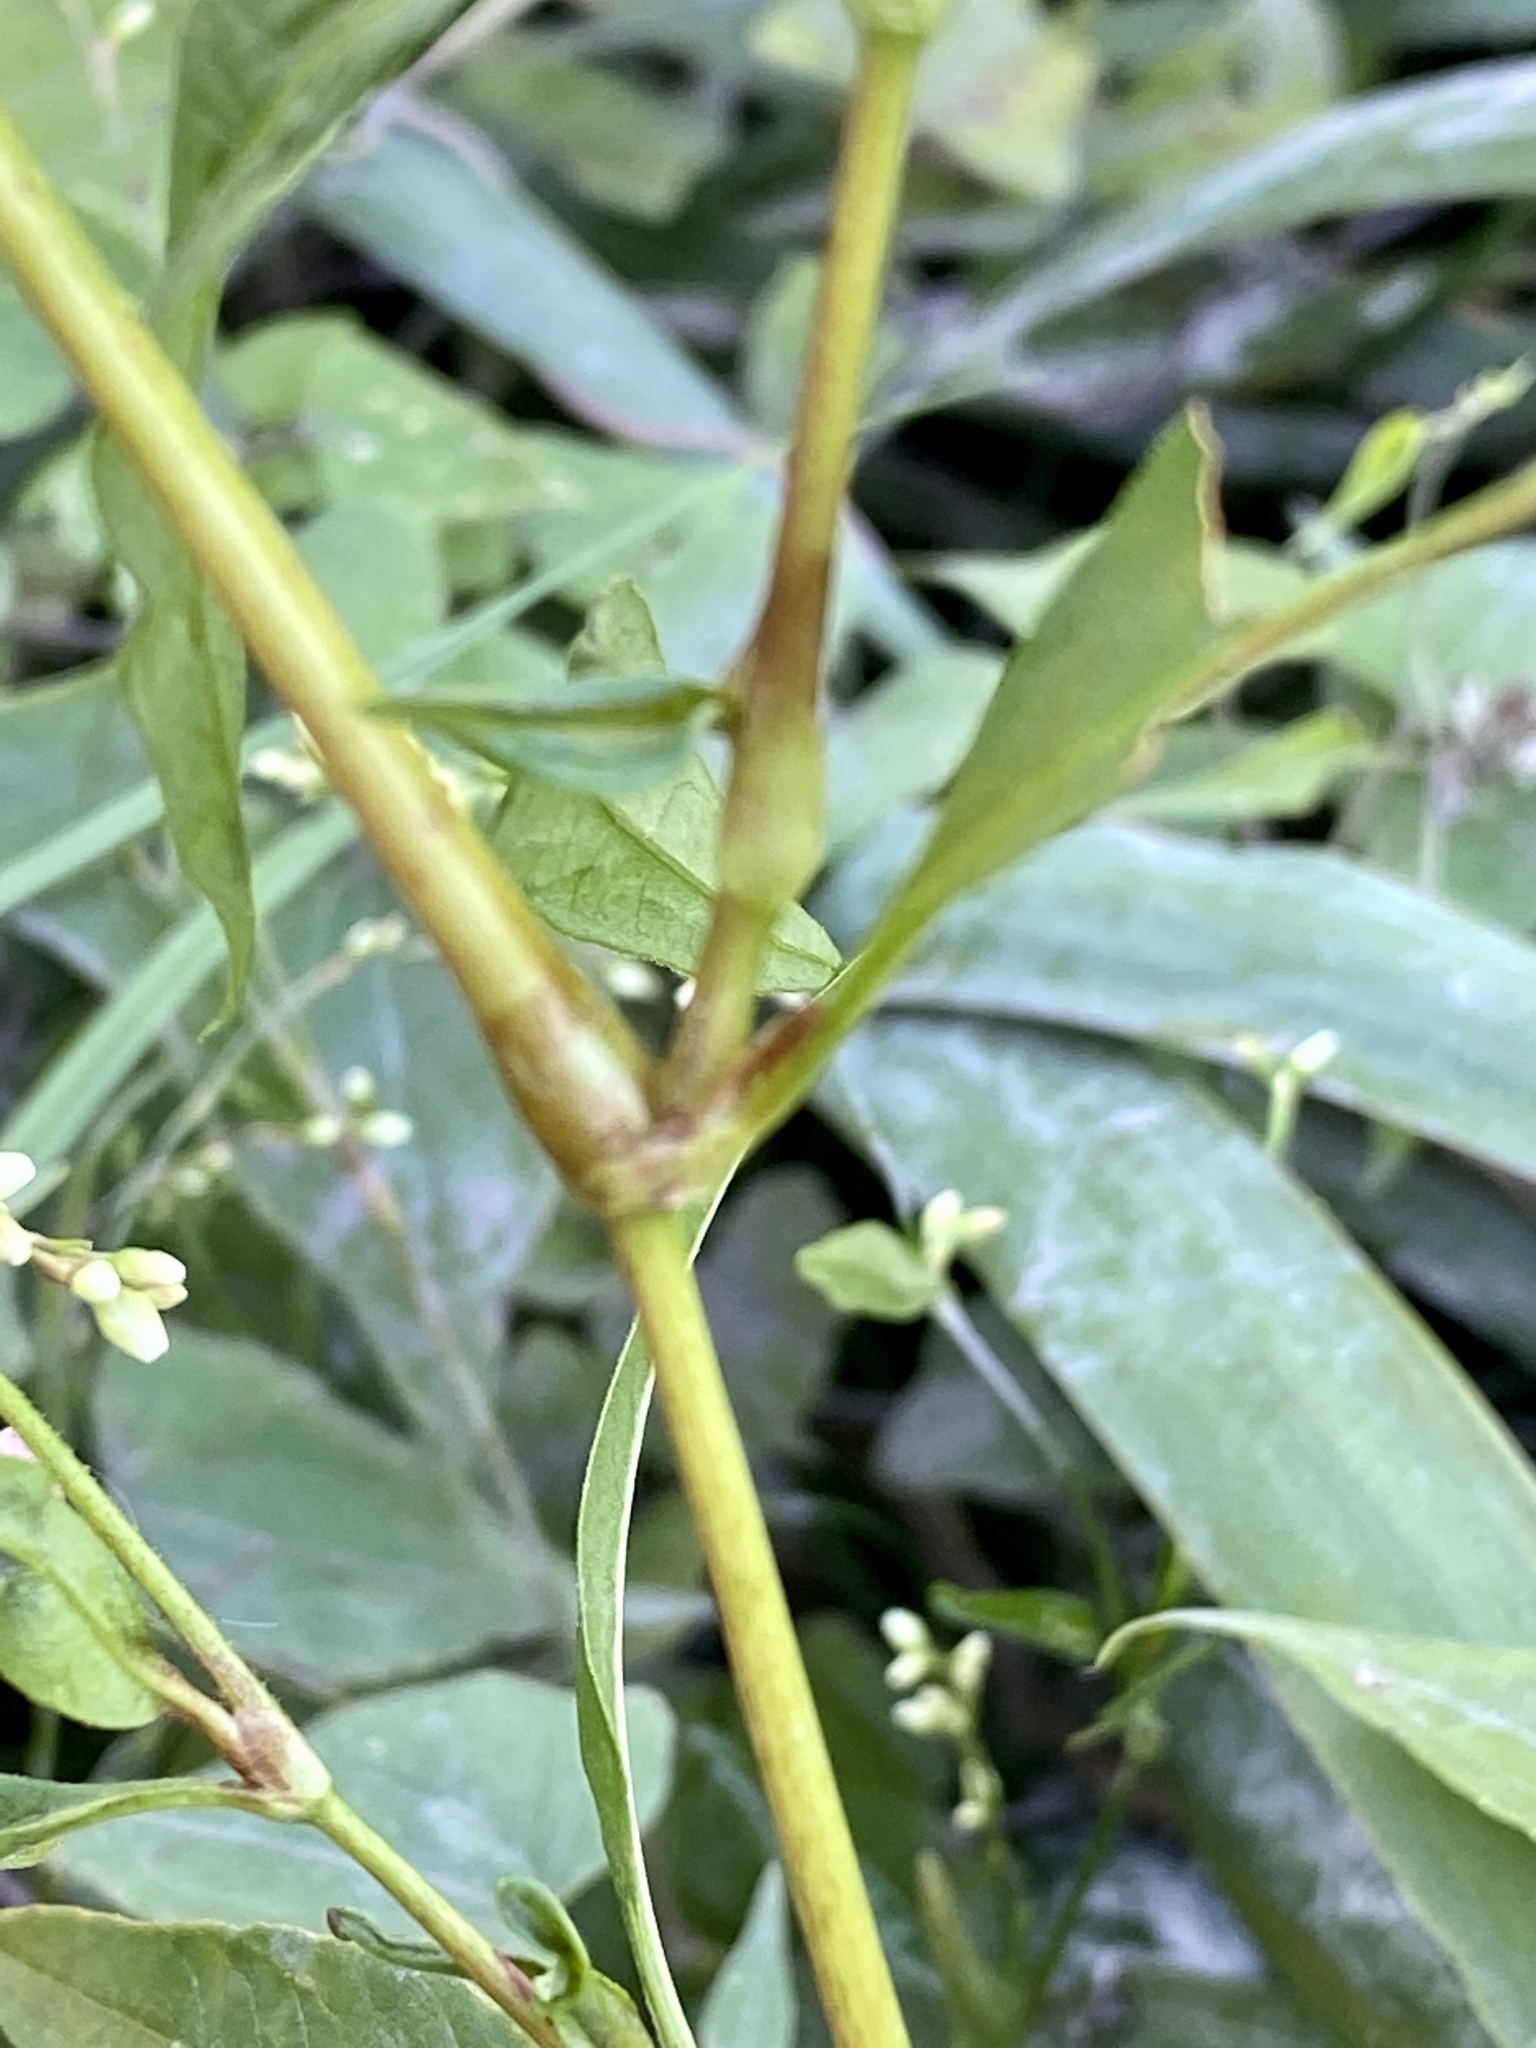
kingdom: Plantae
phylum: Tracheophyta
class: Magnoliopsida
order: Caryophyllales
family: Polygonaceae
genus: Persicaria
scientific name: Persicaria pensylvanica
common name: Pinkweed
